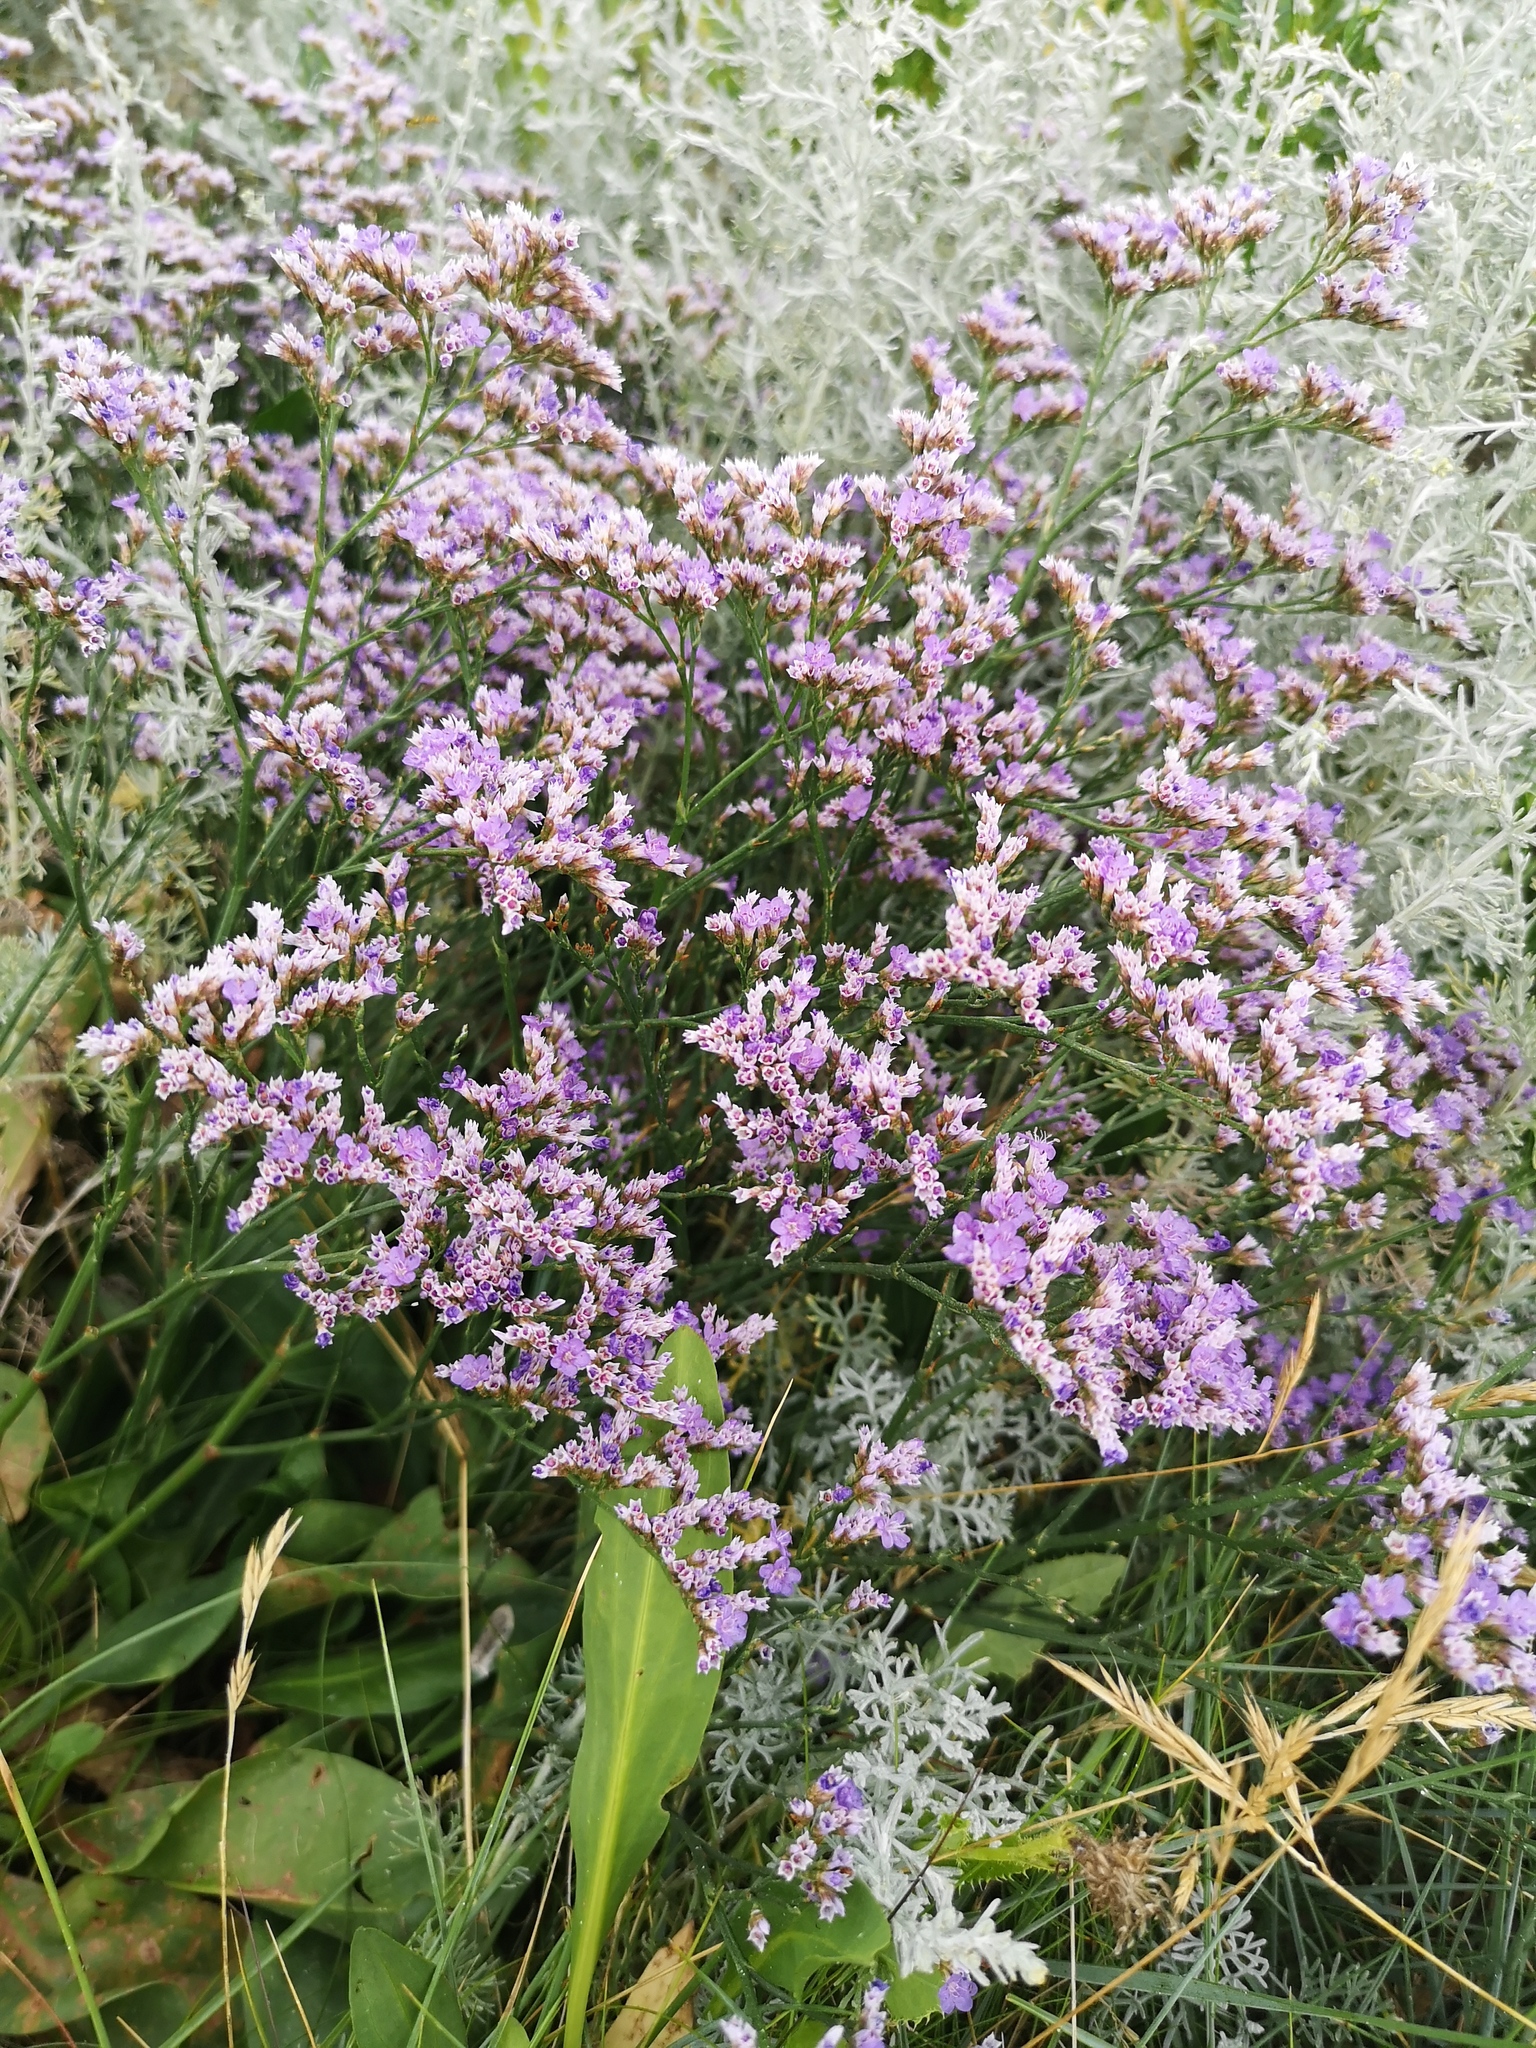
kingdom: Plantae
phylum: Tracheophyta
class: Magnoliopsida
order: Caryophyllales
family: Plumbaginaceae
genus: Limonium
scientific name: Limonium vulgare
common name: Common sea-lavender
